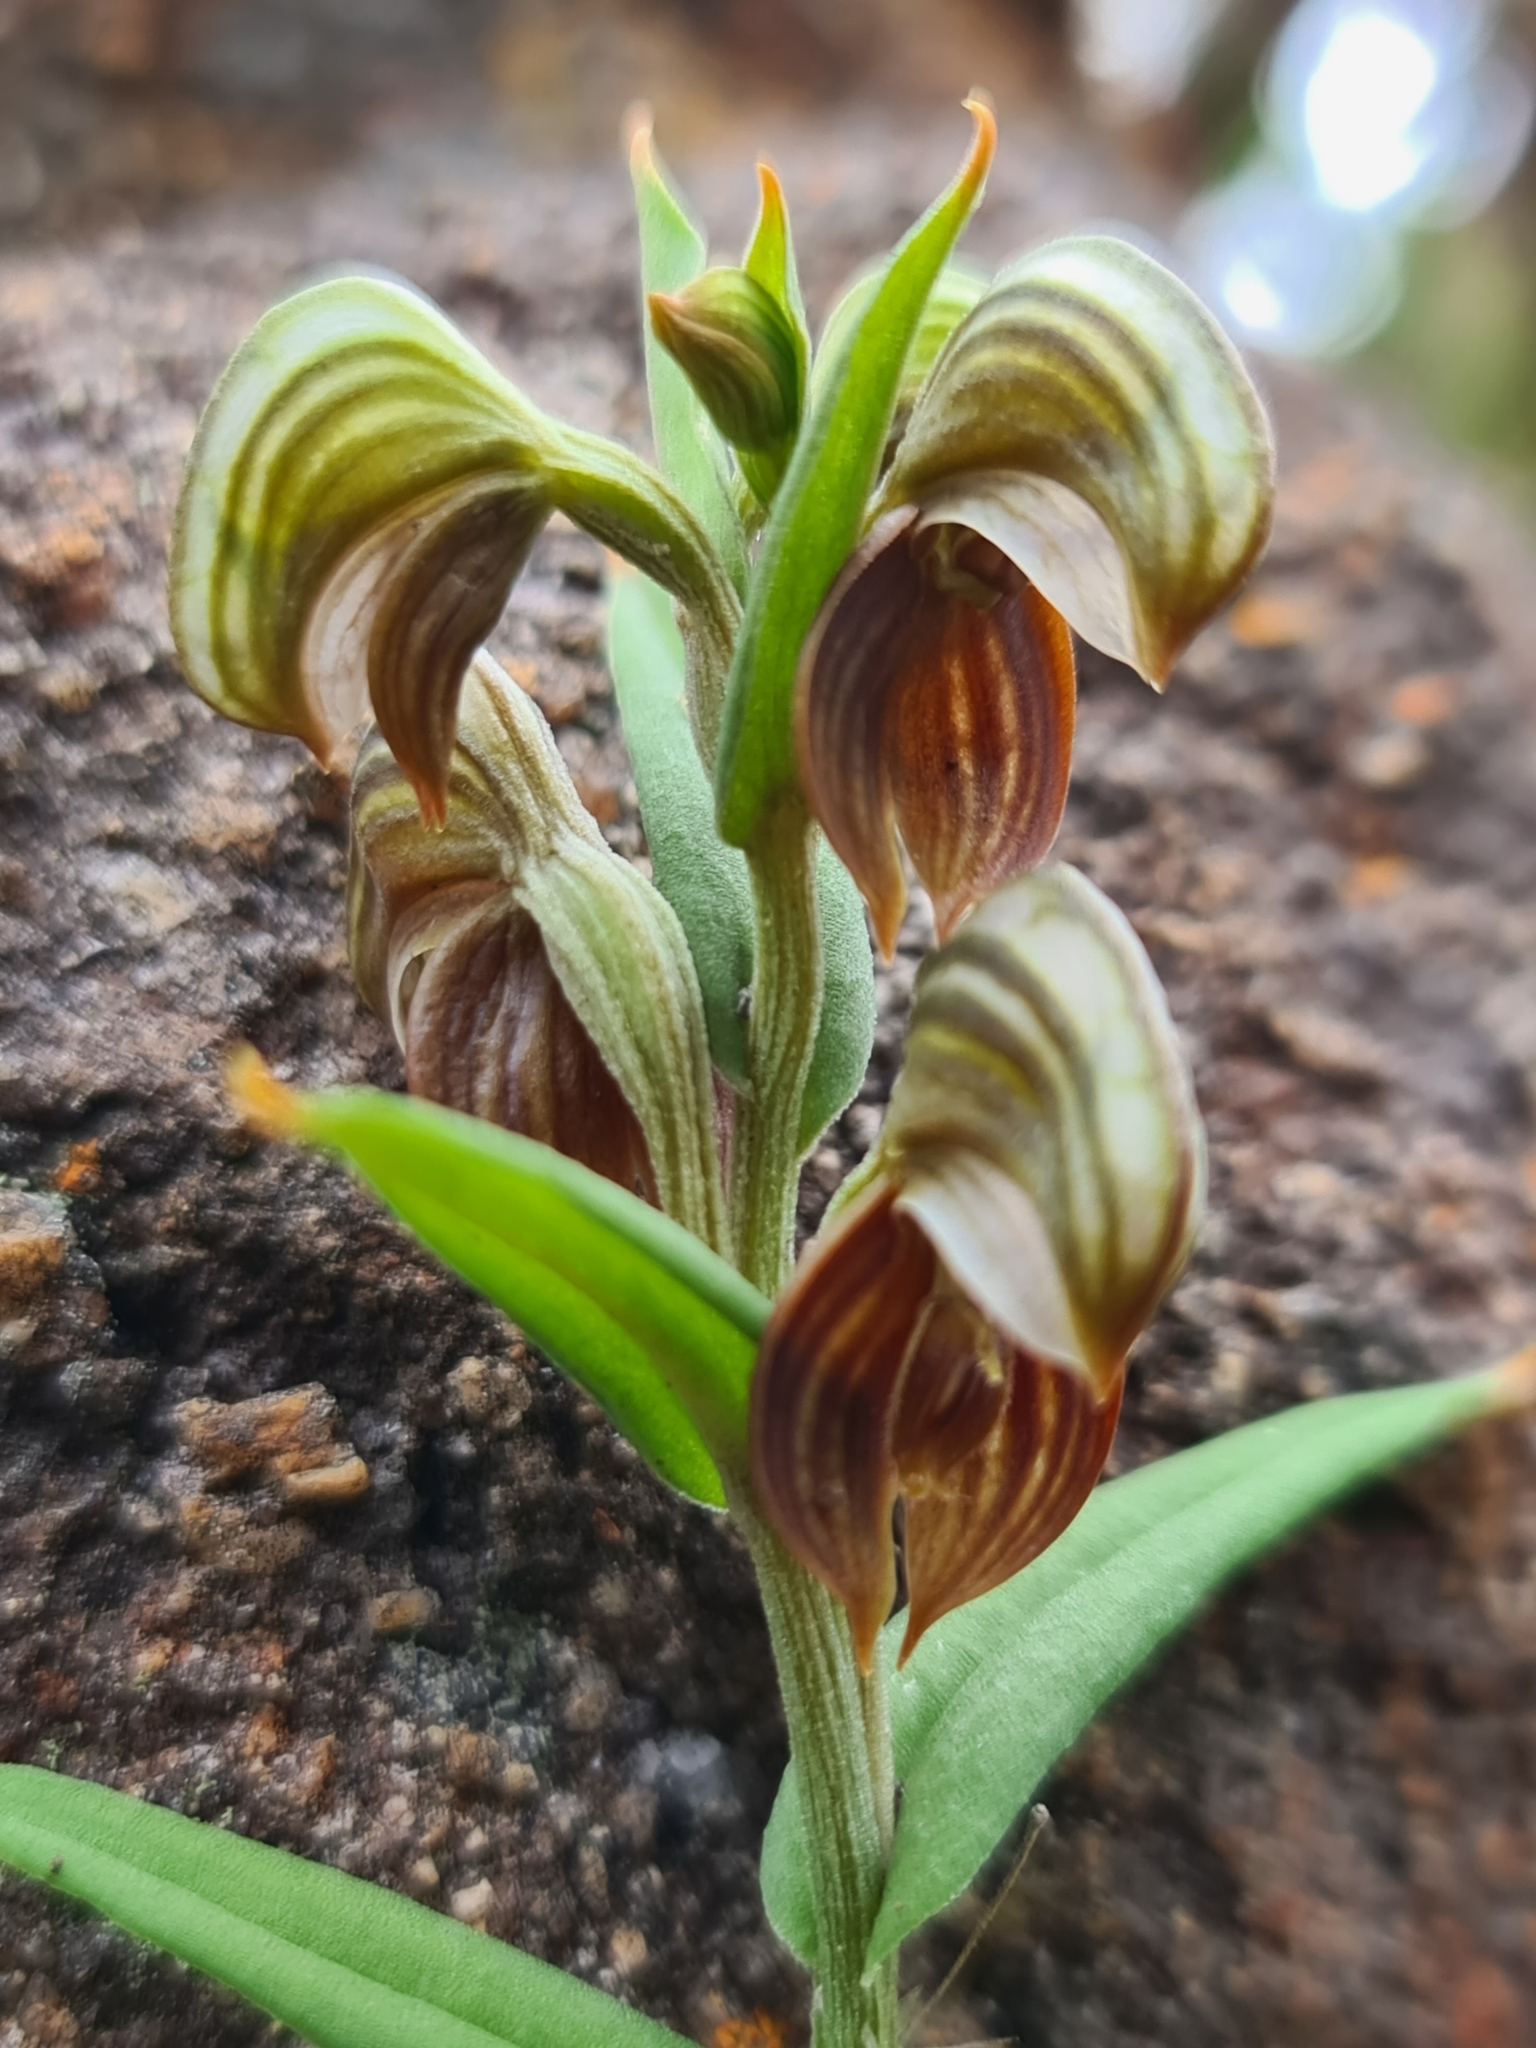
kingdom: Plantae
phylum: Tracheophyta
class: Liliopsida
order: Asparagales
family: Orchidaceae
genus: Pterostylis
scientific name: Pterostylis sanguinea
